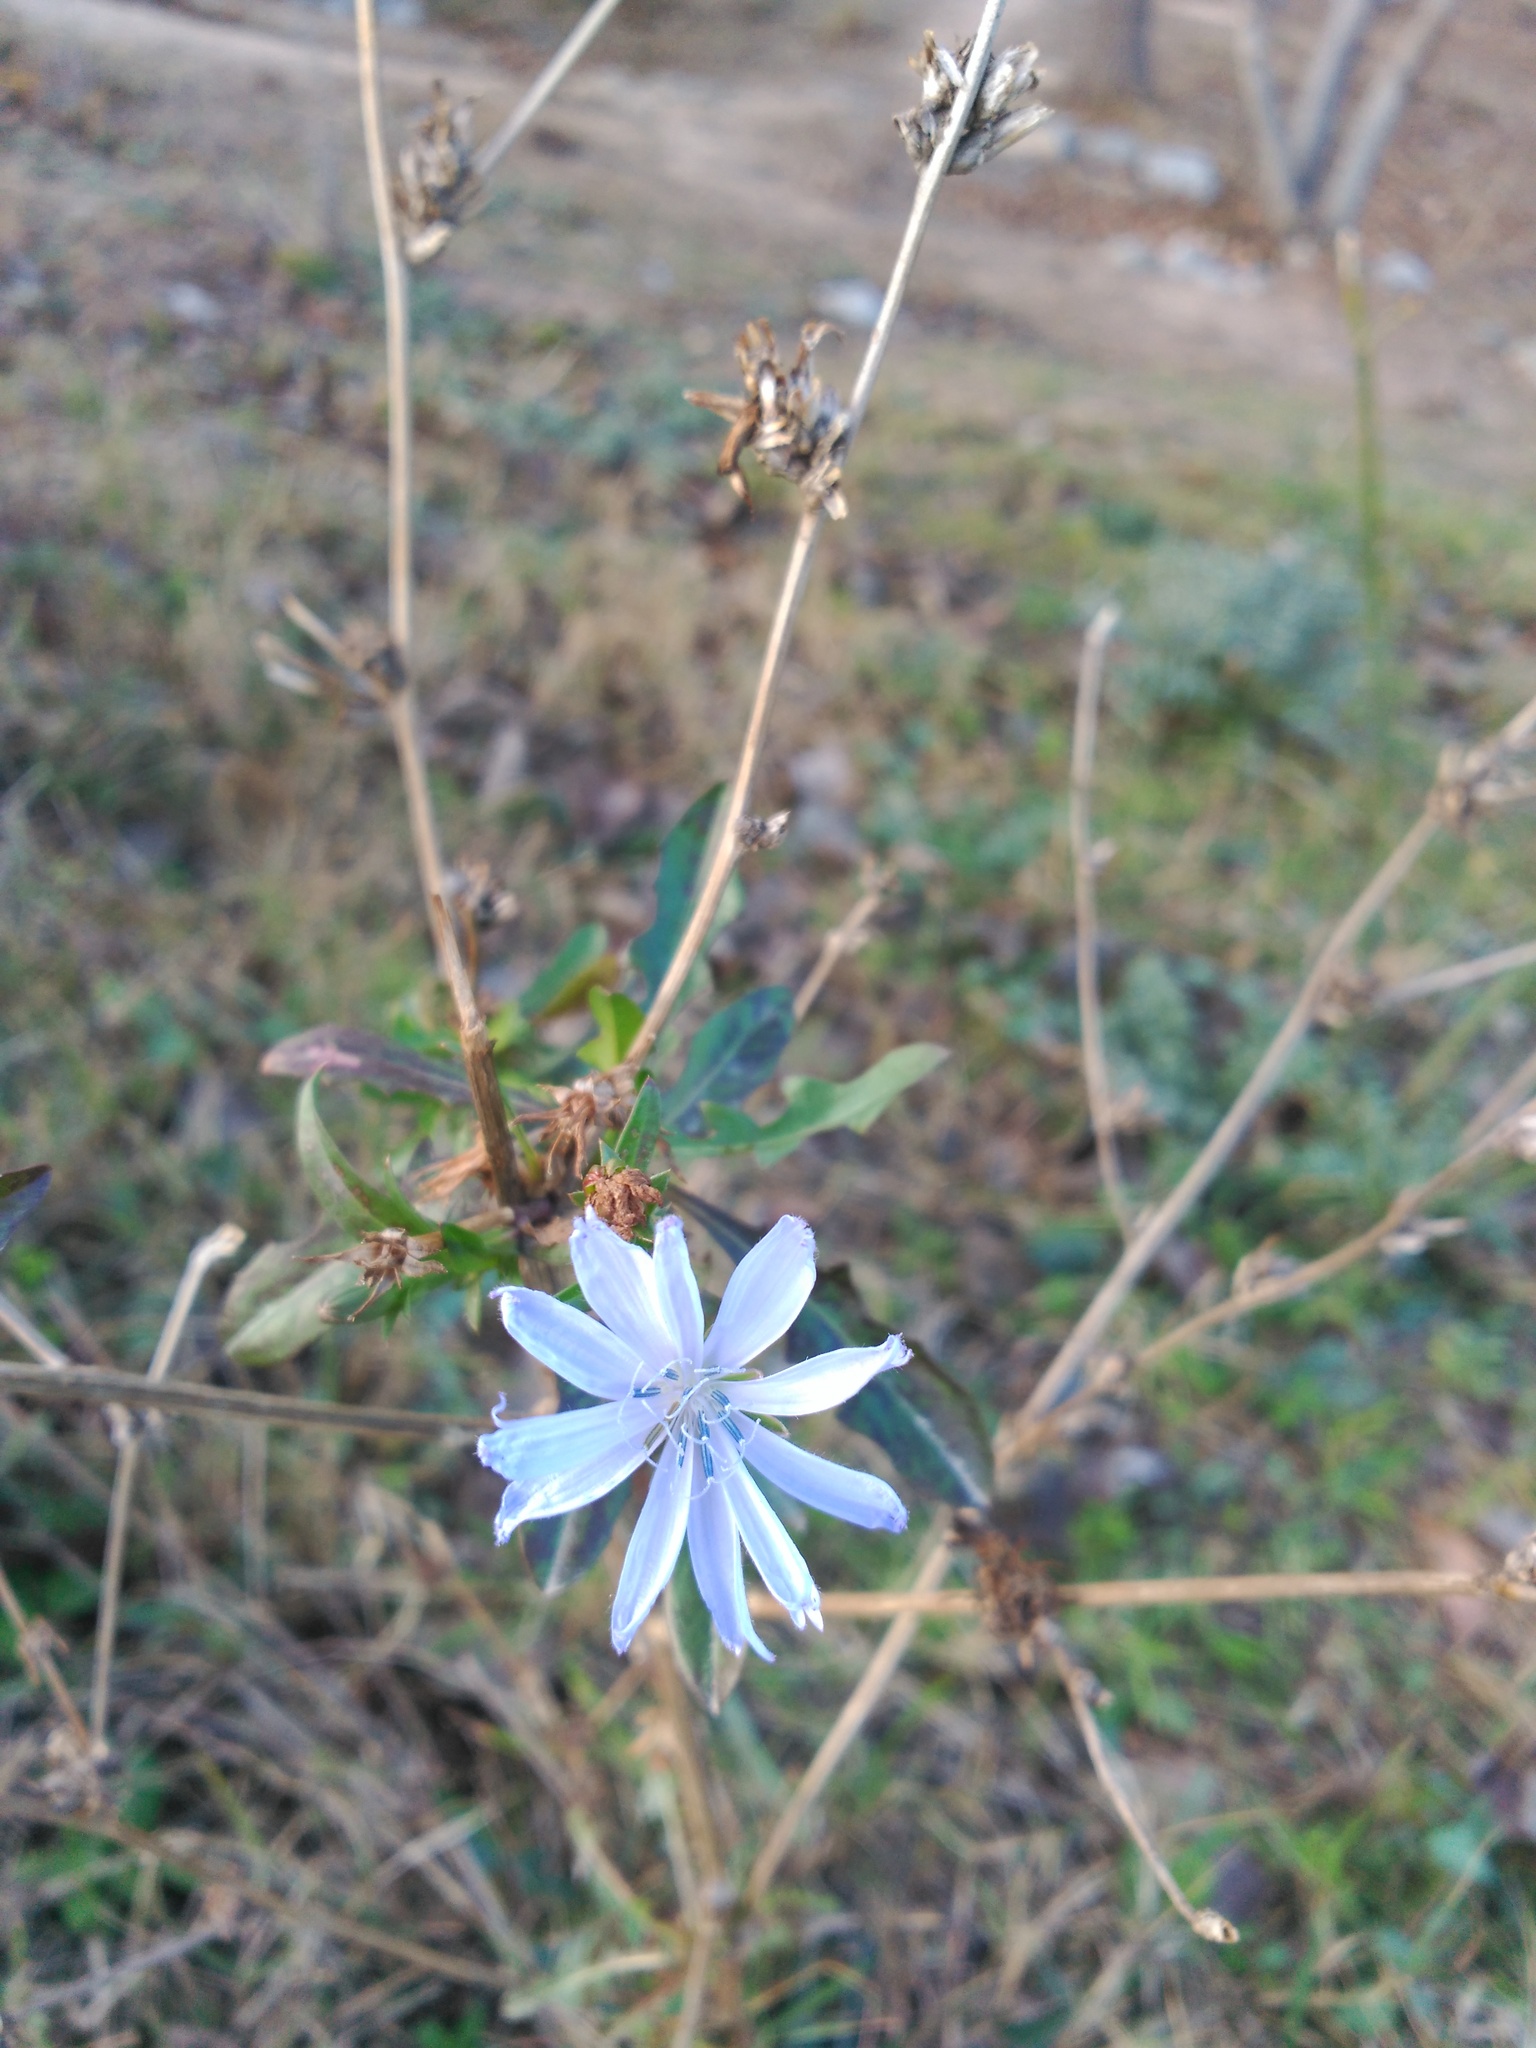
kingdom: Plantae
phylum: Tracheophyta
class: Magnoliopsida
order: Asterales
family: Asteraceae
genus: Cichorium
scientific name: Cichorium intybus
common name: Chicory
